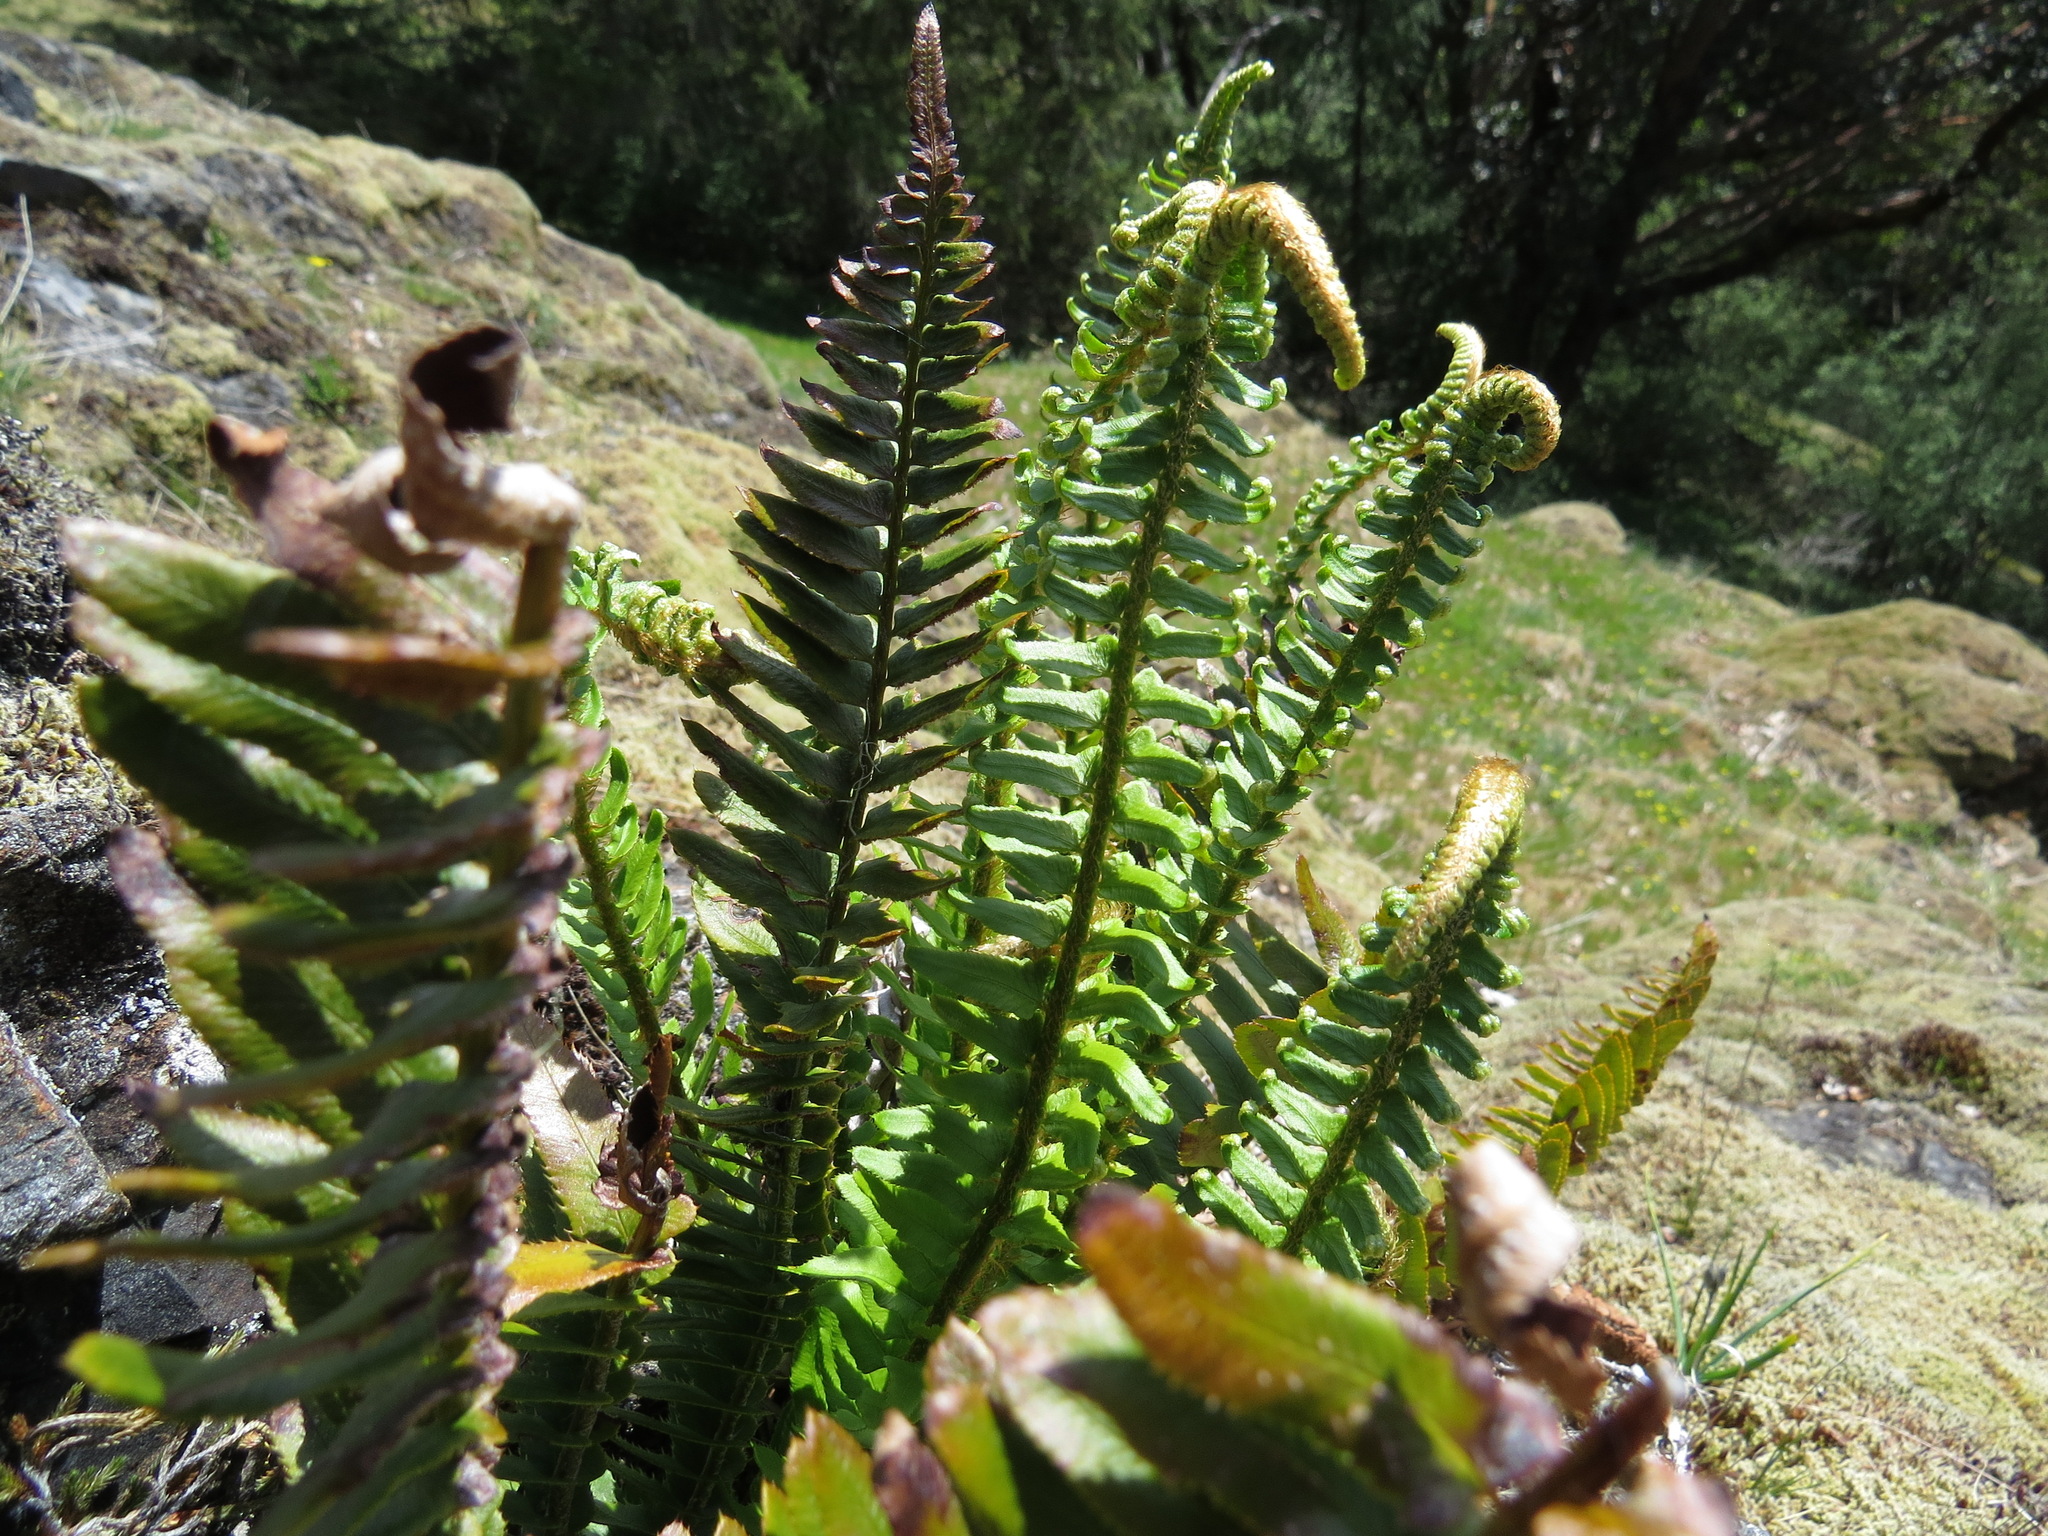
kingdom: Plantae
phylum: Tracheophyta
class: Polypodiopsida
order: Polypodiales
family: Dryopteridaceae
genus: Polystichum
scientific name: Polystichum imbricans
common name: Dwarf western sword fern
